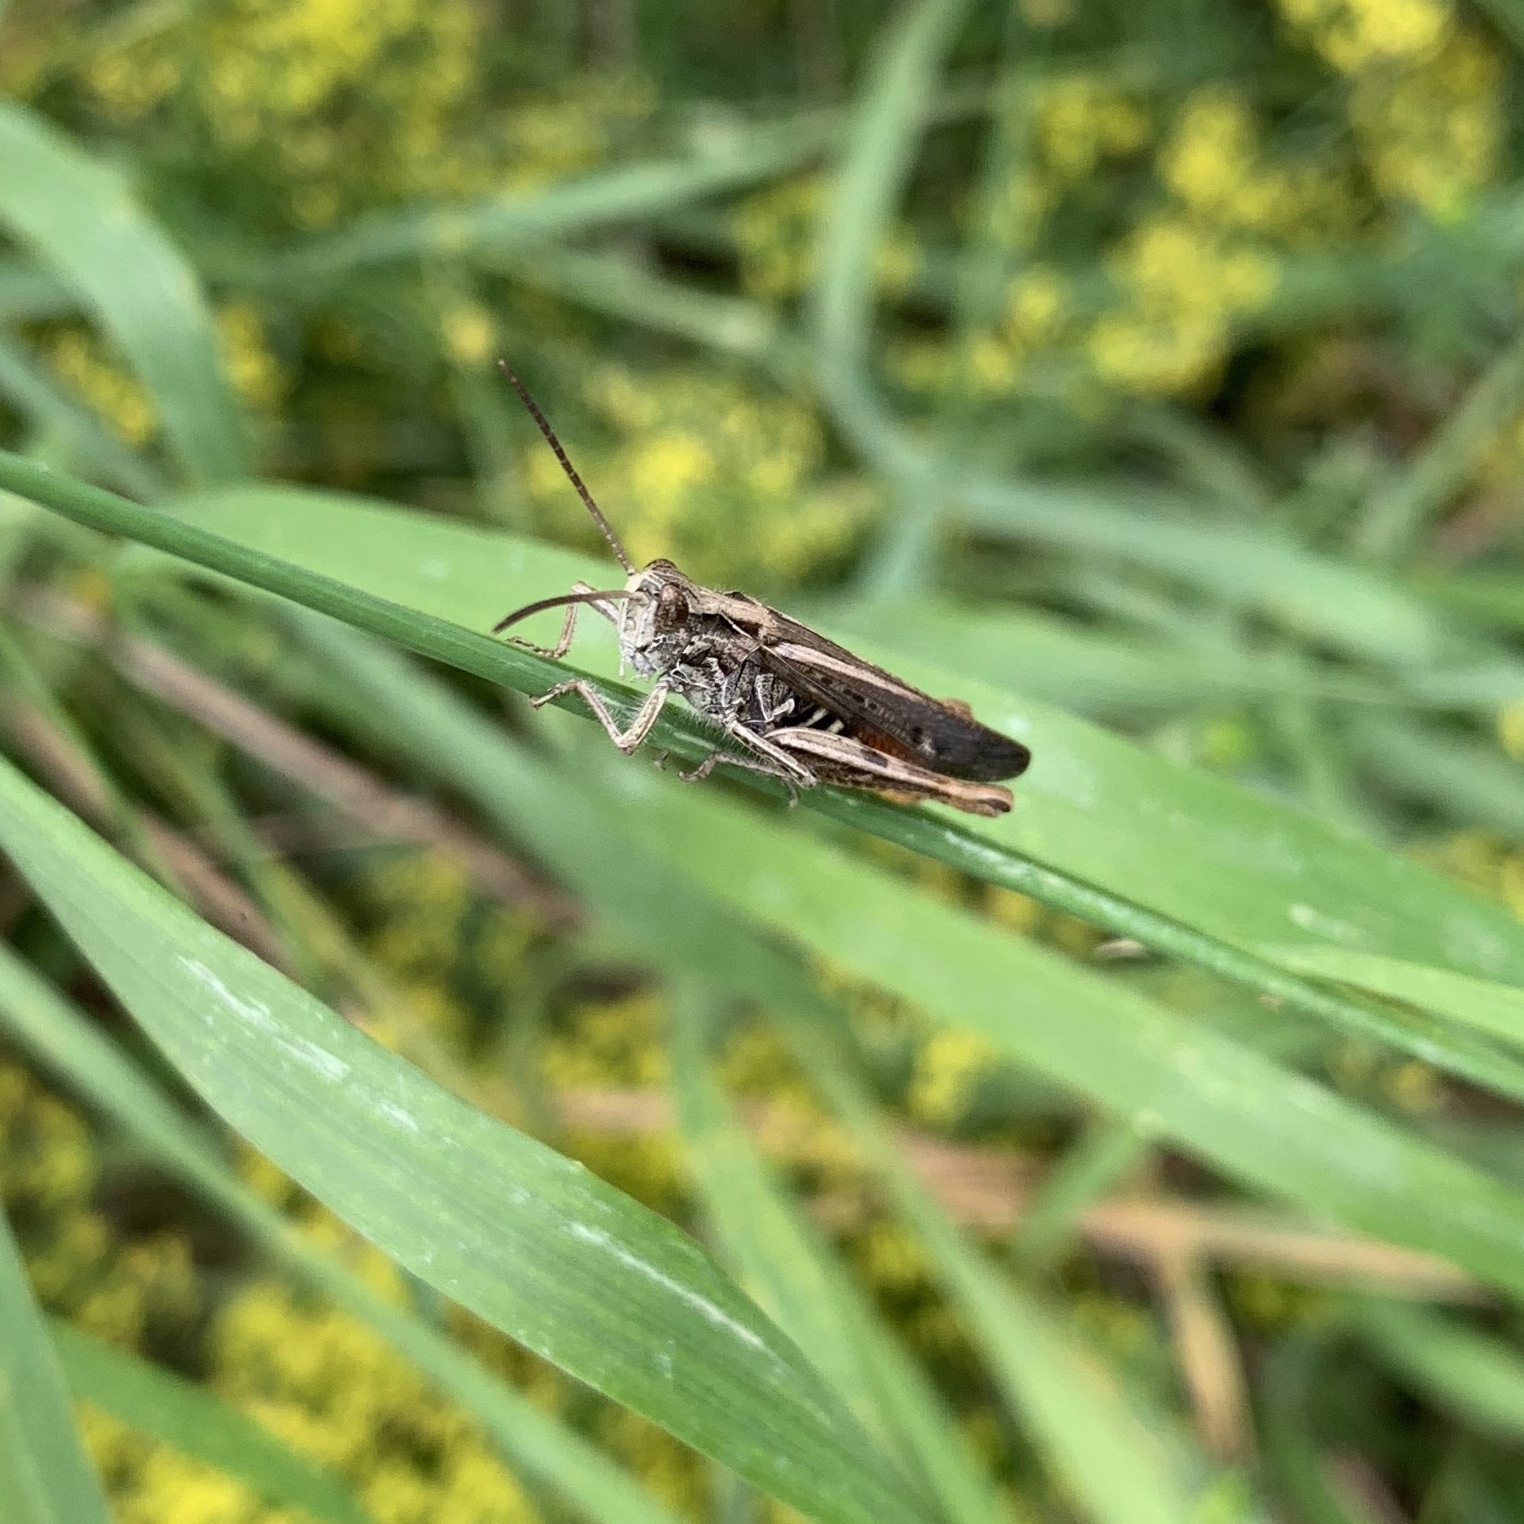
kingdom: Animalia
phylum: Arthropoda
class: Insecta
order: Orthoptera
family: Acrididae
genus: Chorthippus
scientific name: Chorthippus brunneus
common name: Field grasshopper
